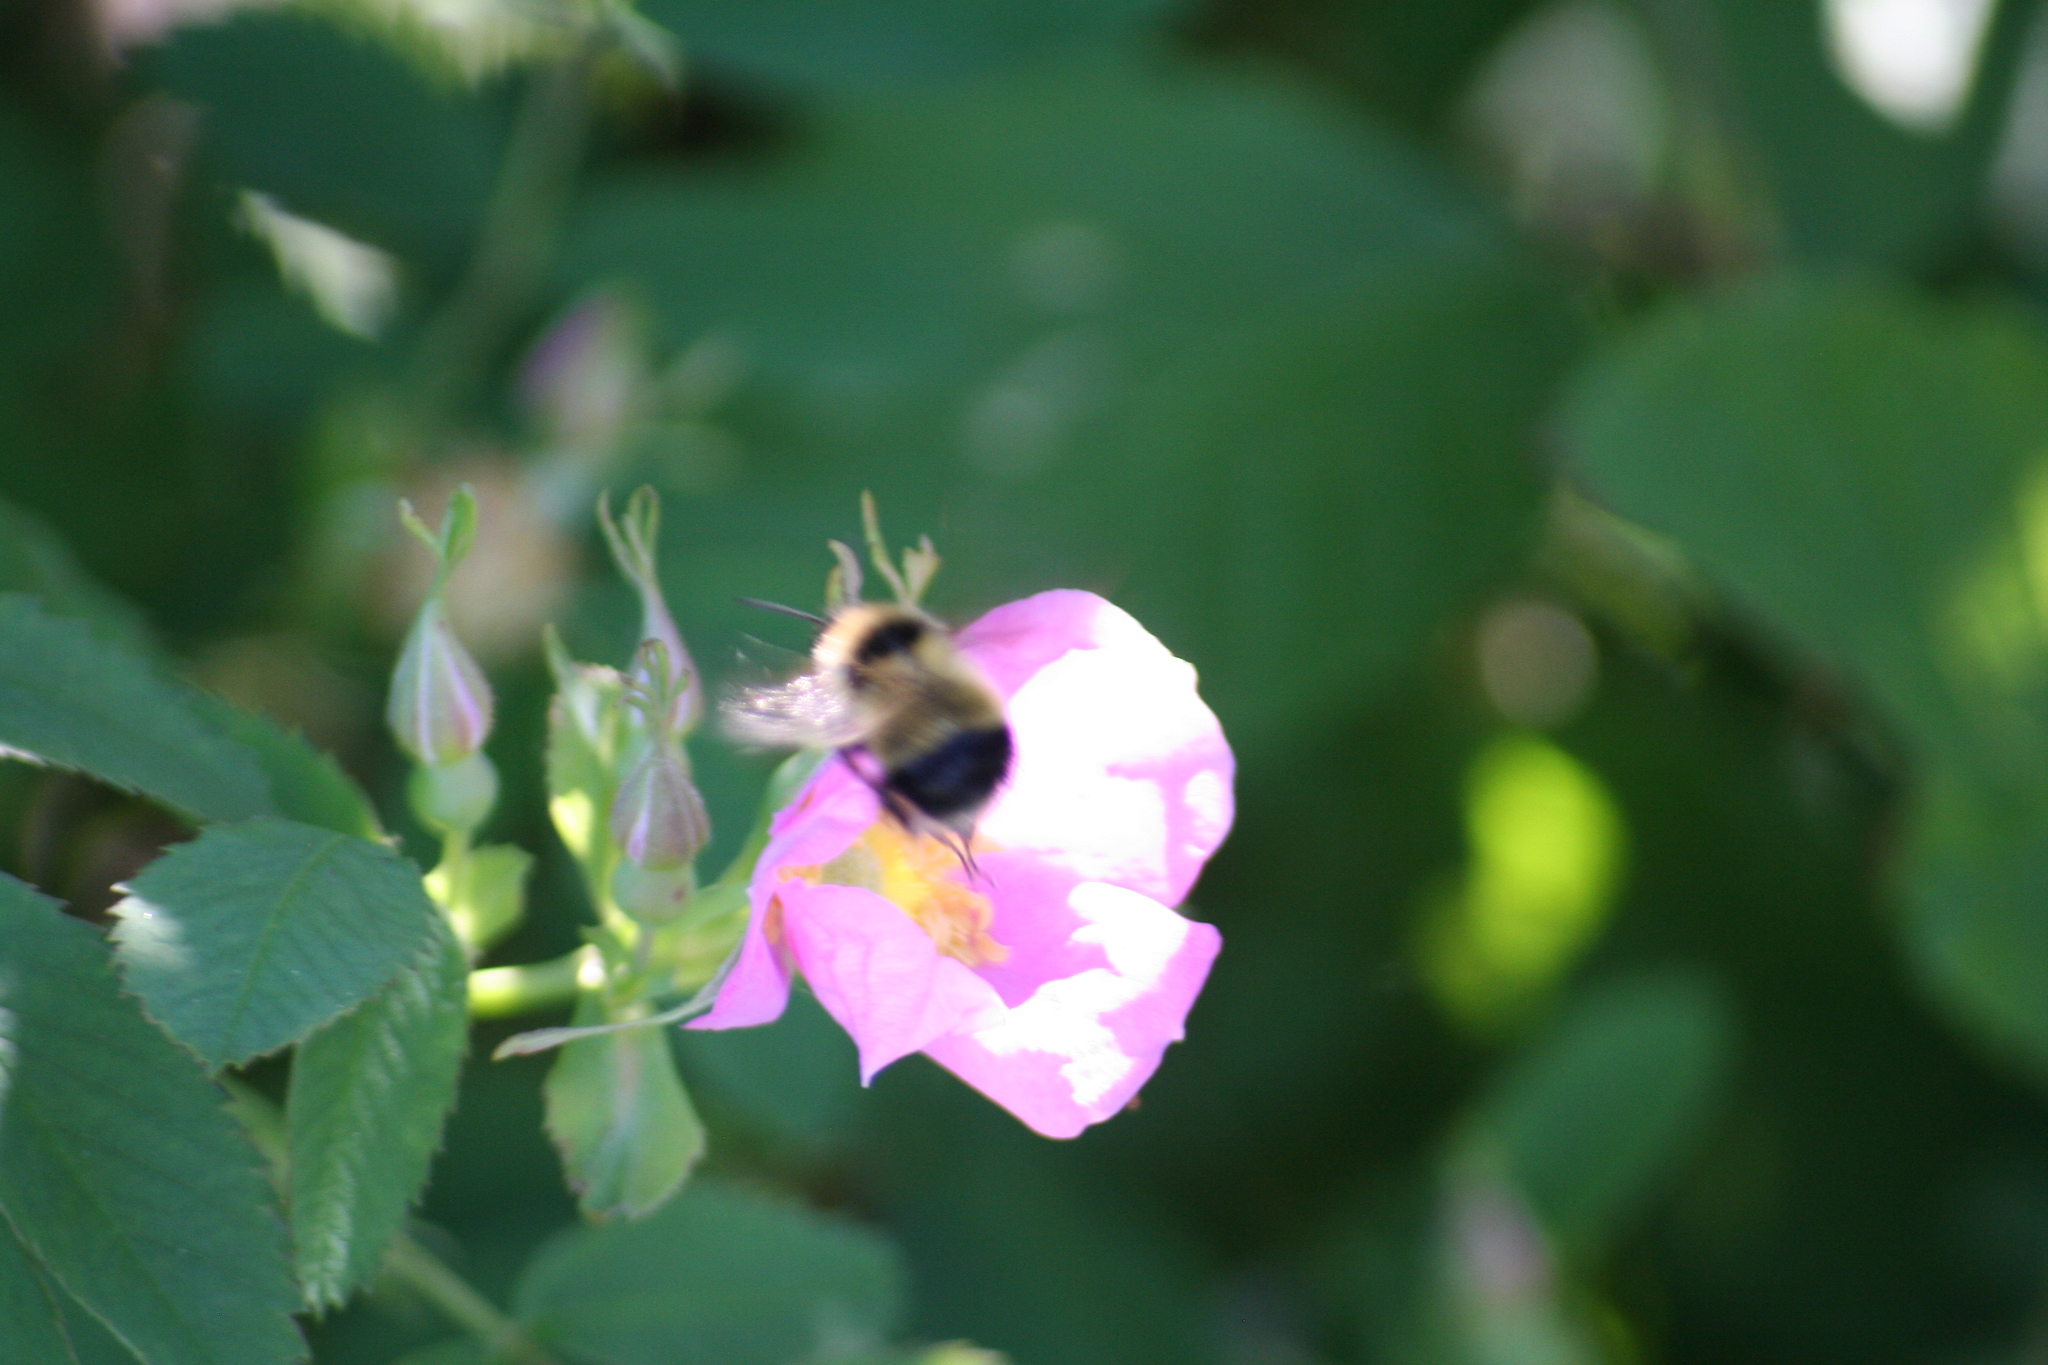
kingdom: Animalia
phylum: Arthropoda
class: Insecta
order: Hymenoptera
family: Apidae
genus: Pyrobombus
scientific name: Pyrobombus
